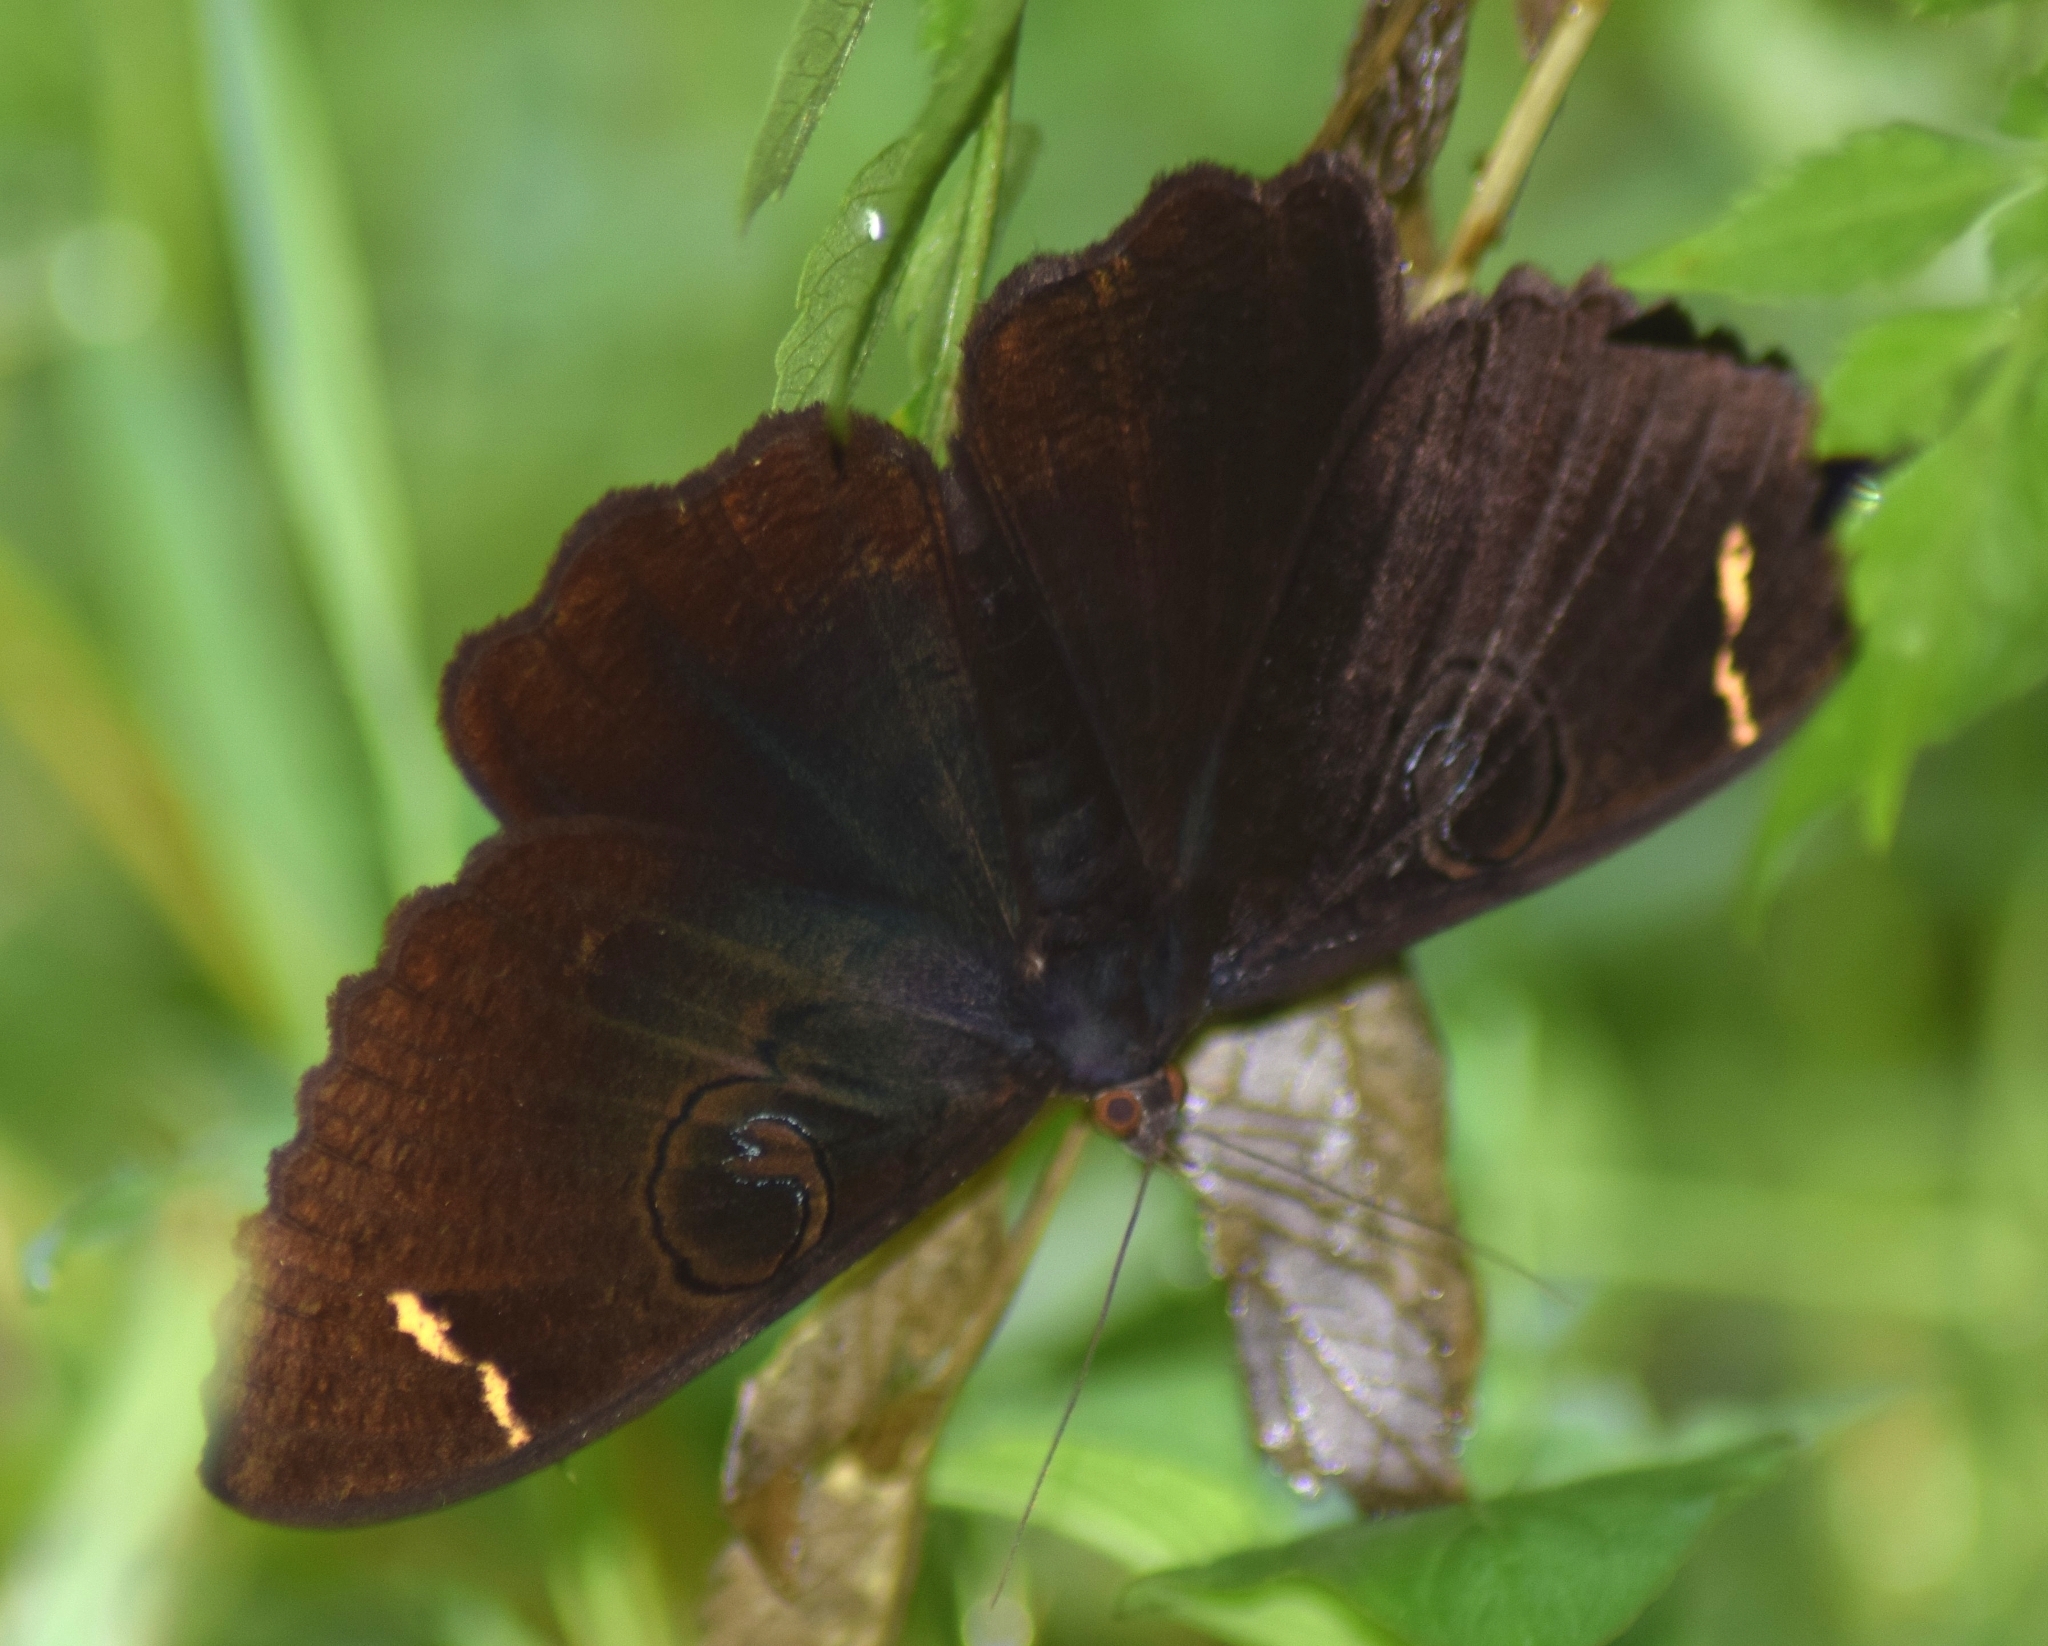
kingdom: Animalia
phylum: Arthropoda
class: Insecta
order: Lepidoptera
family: Erebidae
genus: Erebus
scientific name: Erebus hieroglyphica
